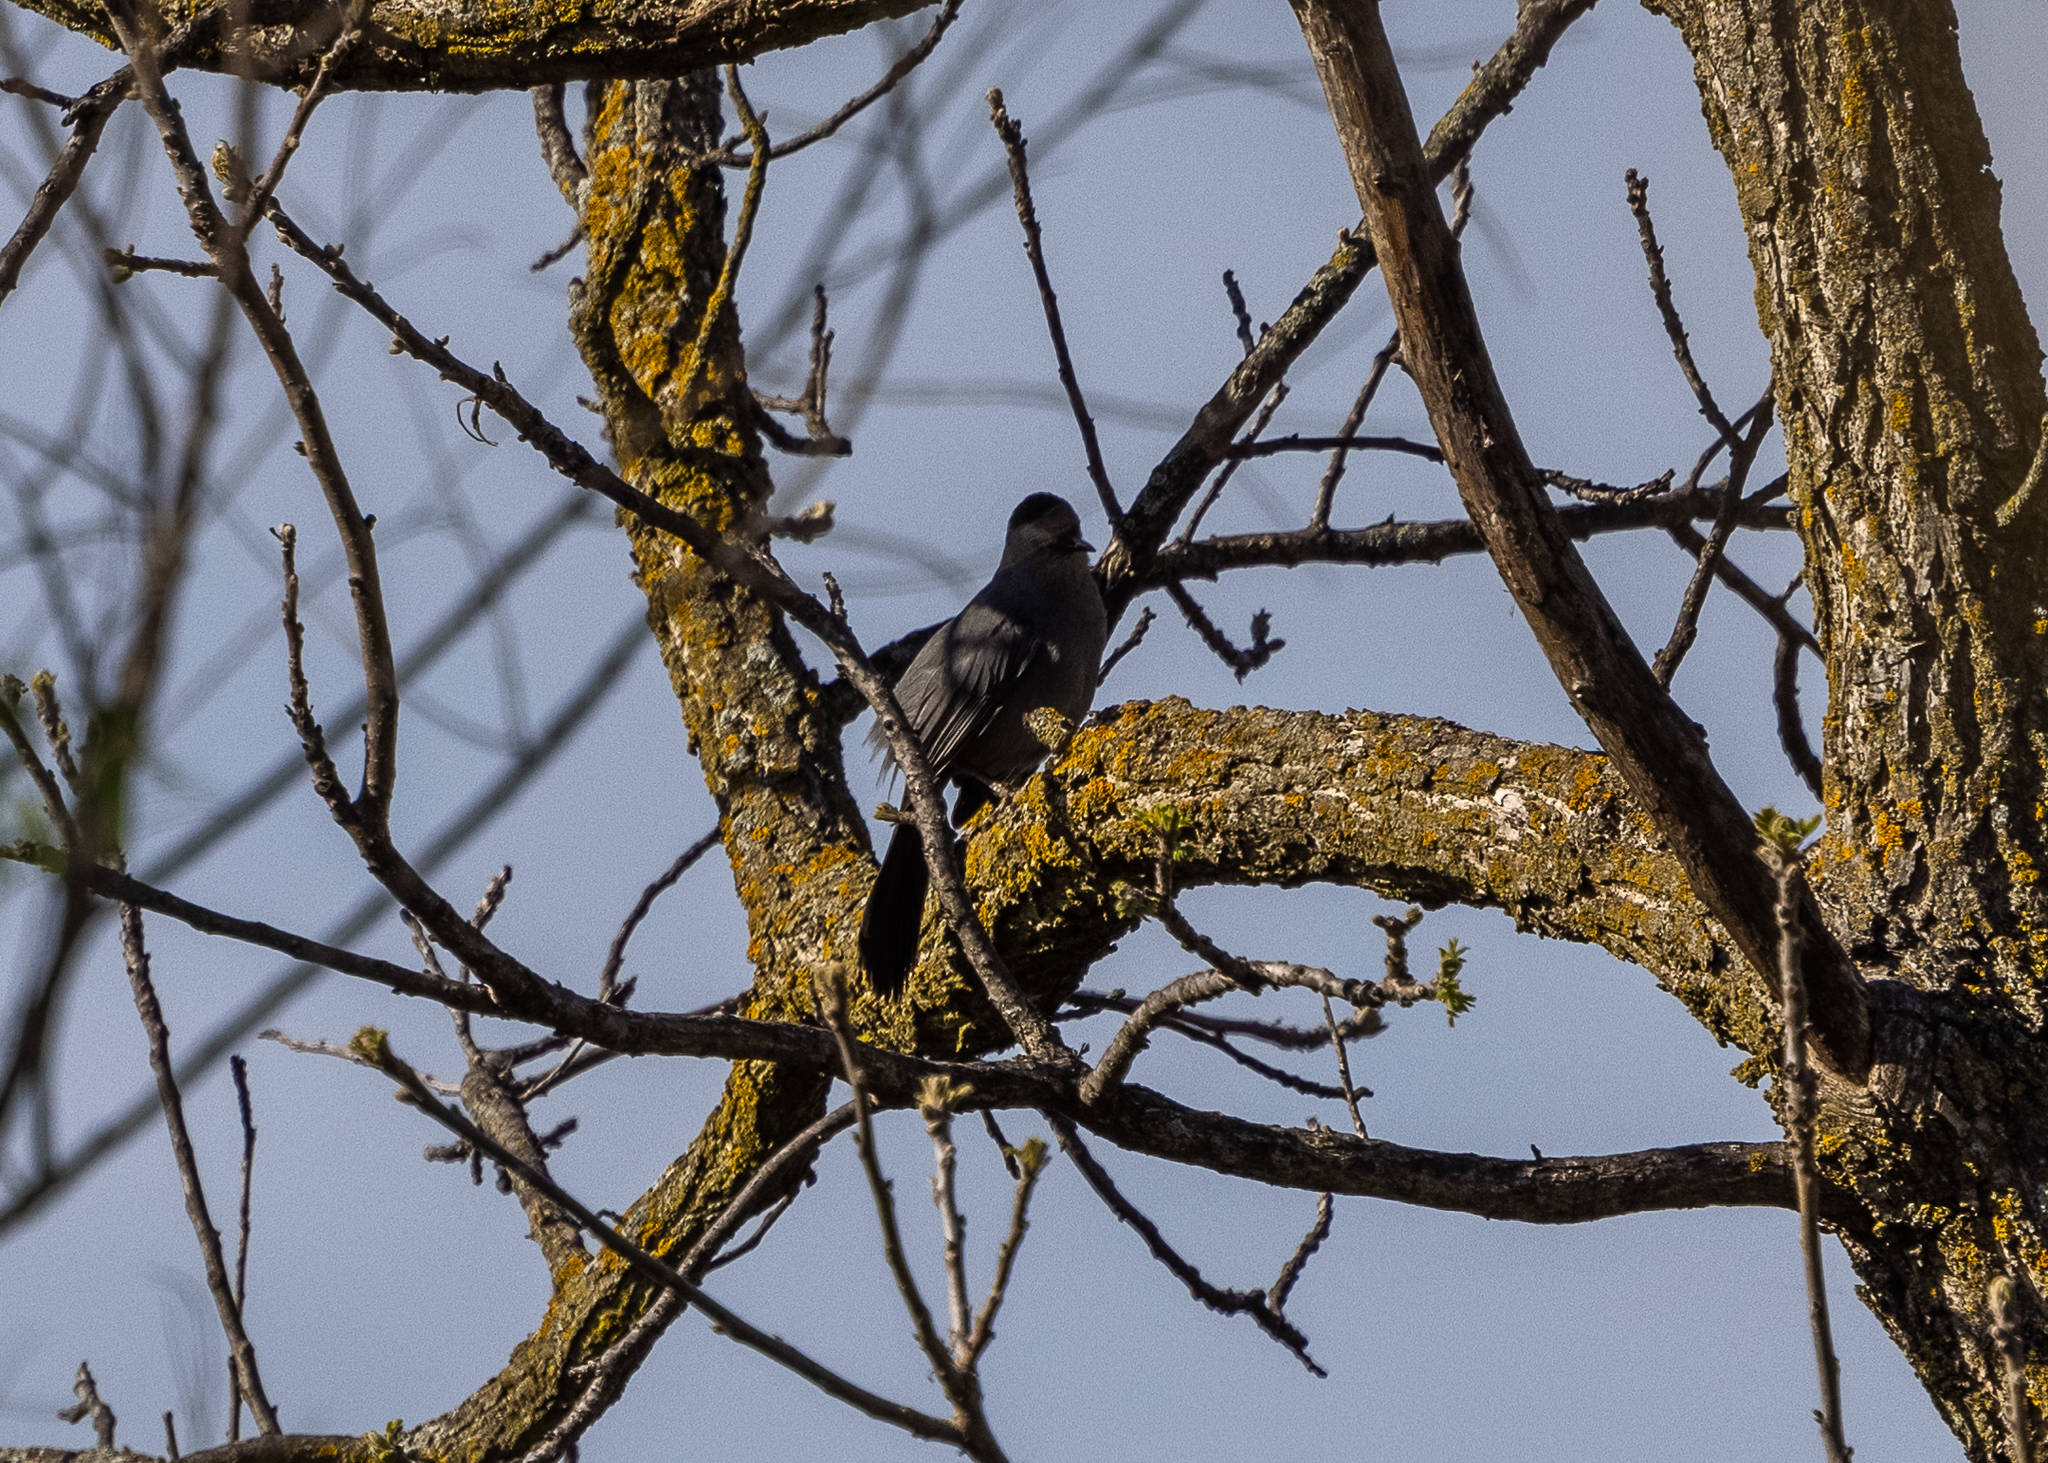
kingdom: Animalia
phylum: Chordata
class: Aves
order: Passeriformes
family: Mimidae
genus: Dumetella
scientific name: Dumetella carolinensis
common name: Gray catbird
